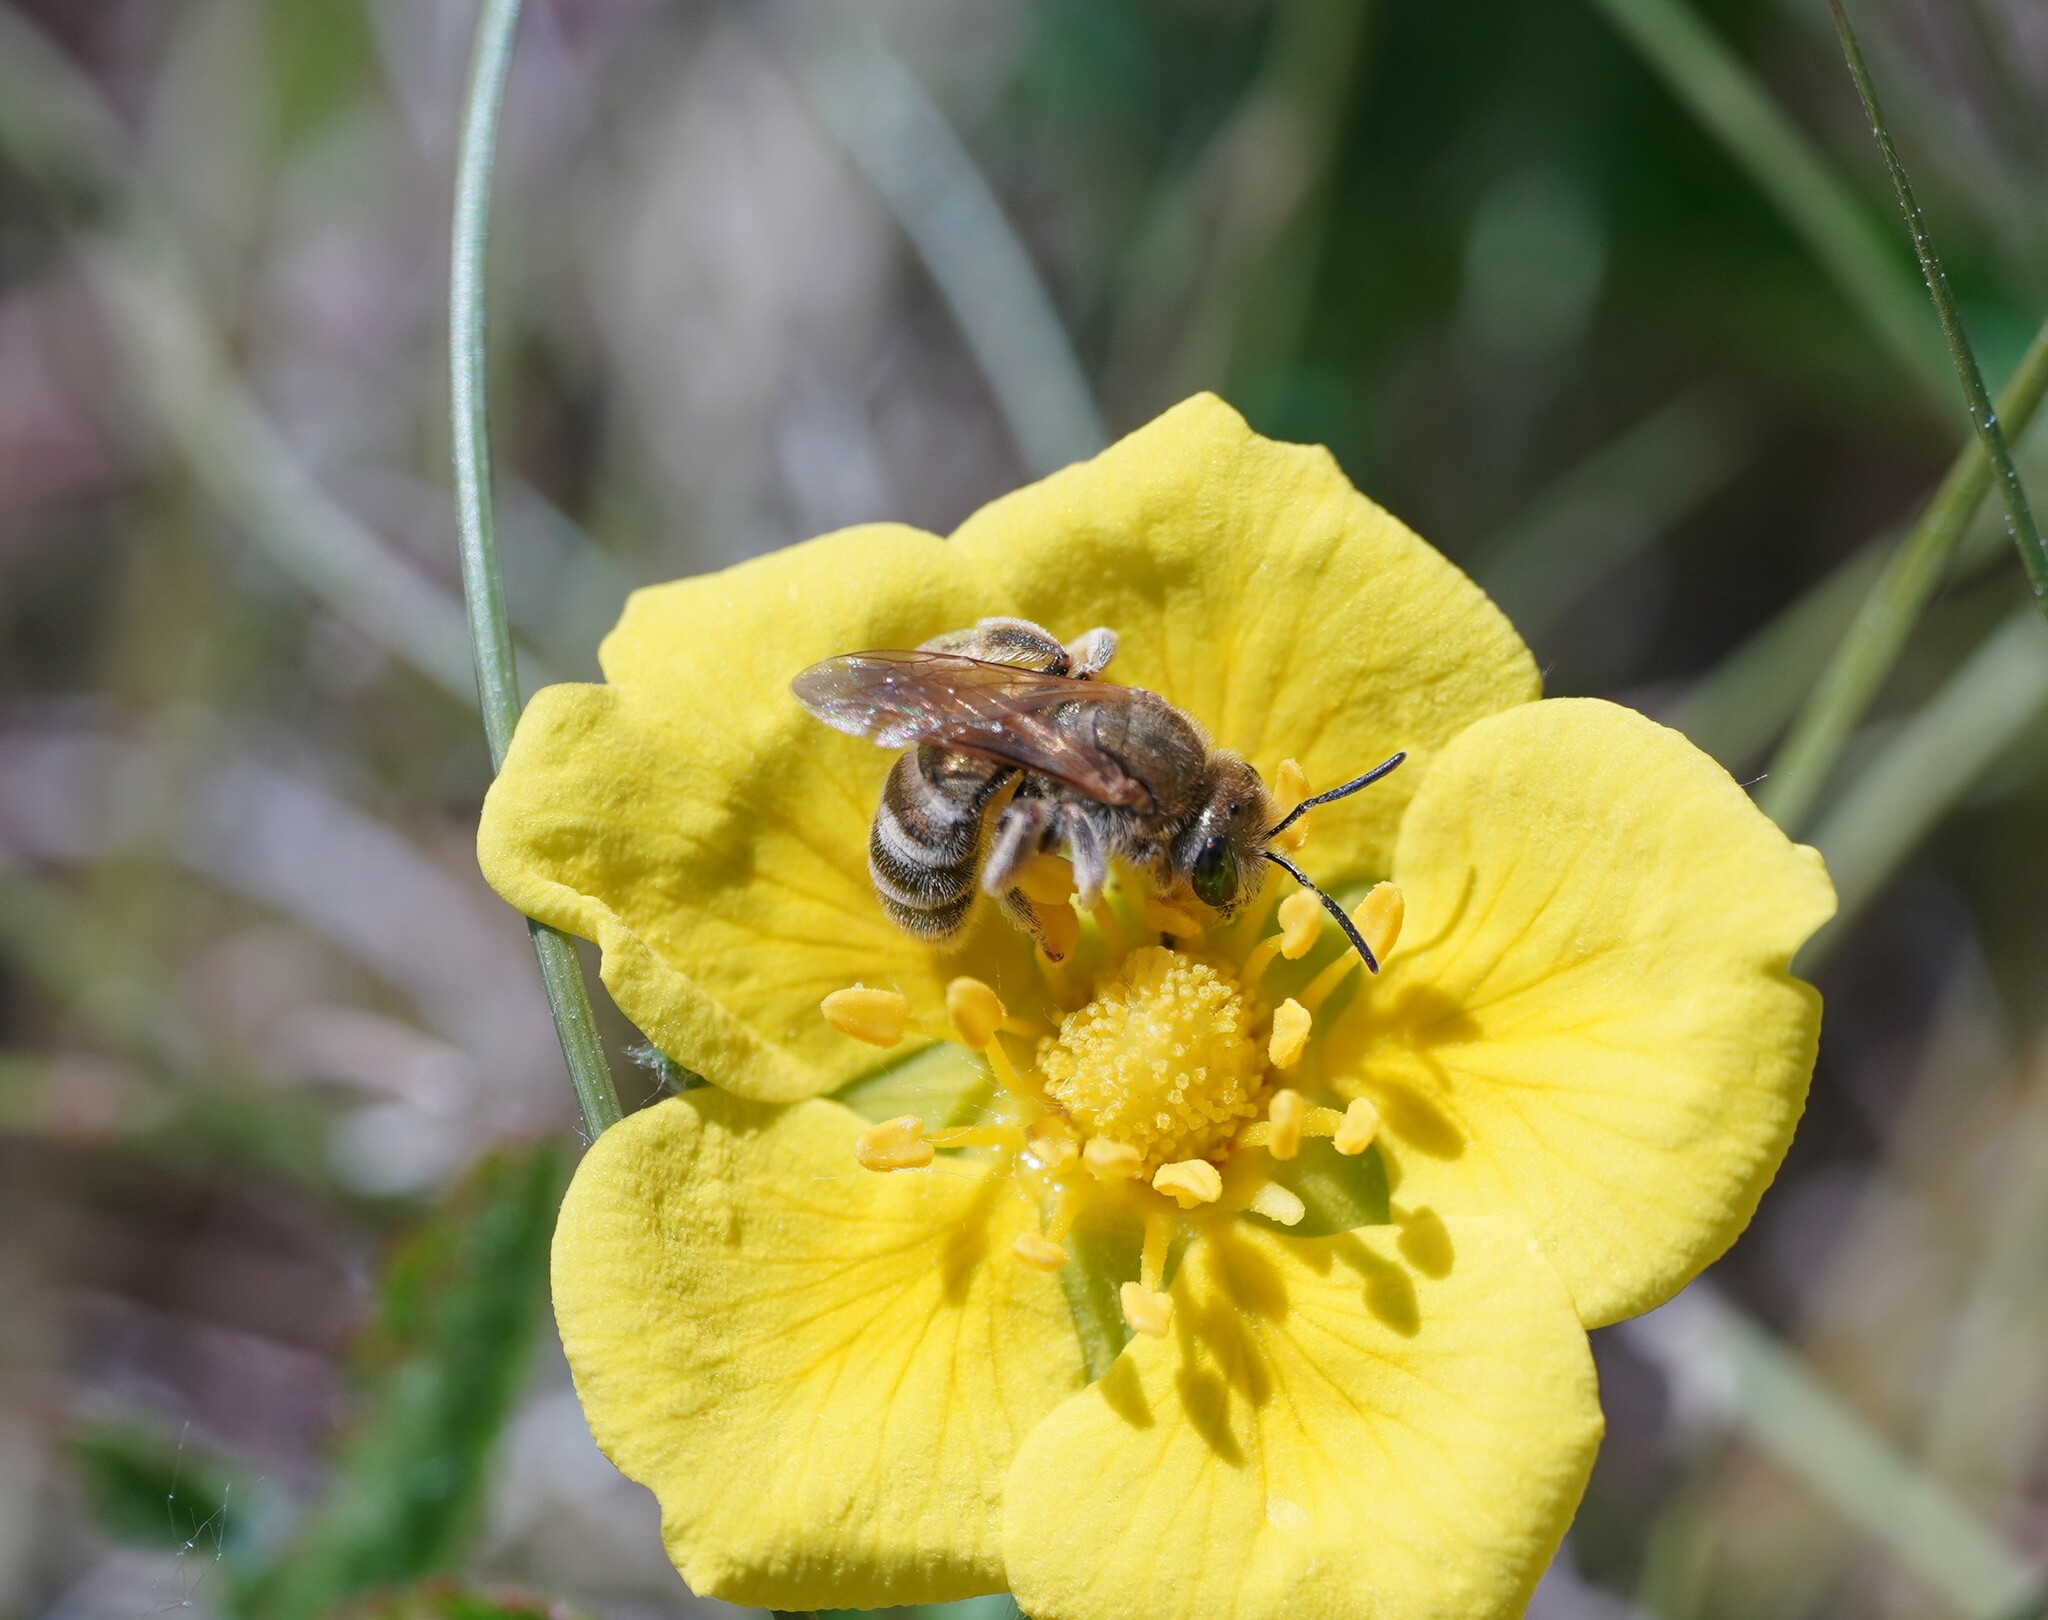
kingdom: Animalia
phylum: Arthropoda
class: Insecta
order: Hymenoptera
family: Halictidae
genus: Halictus
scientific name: Halictus subauratus
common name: Golden furrow bee
